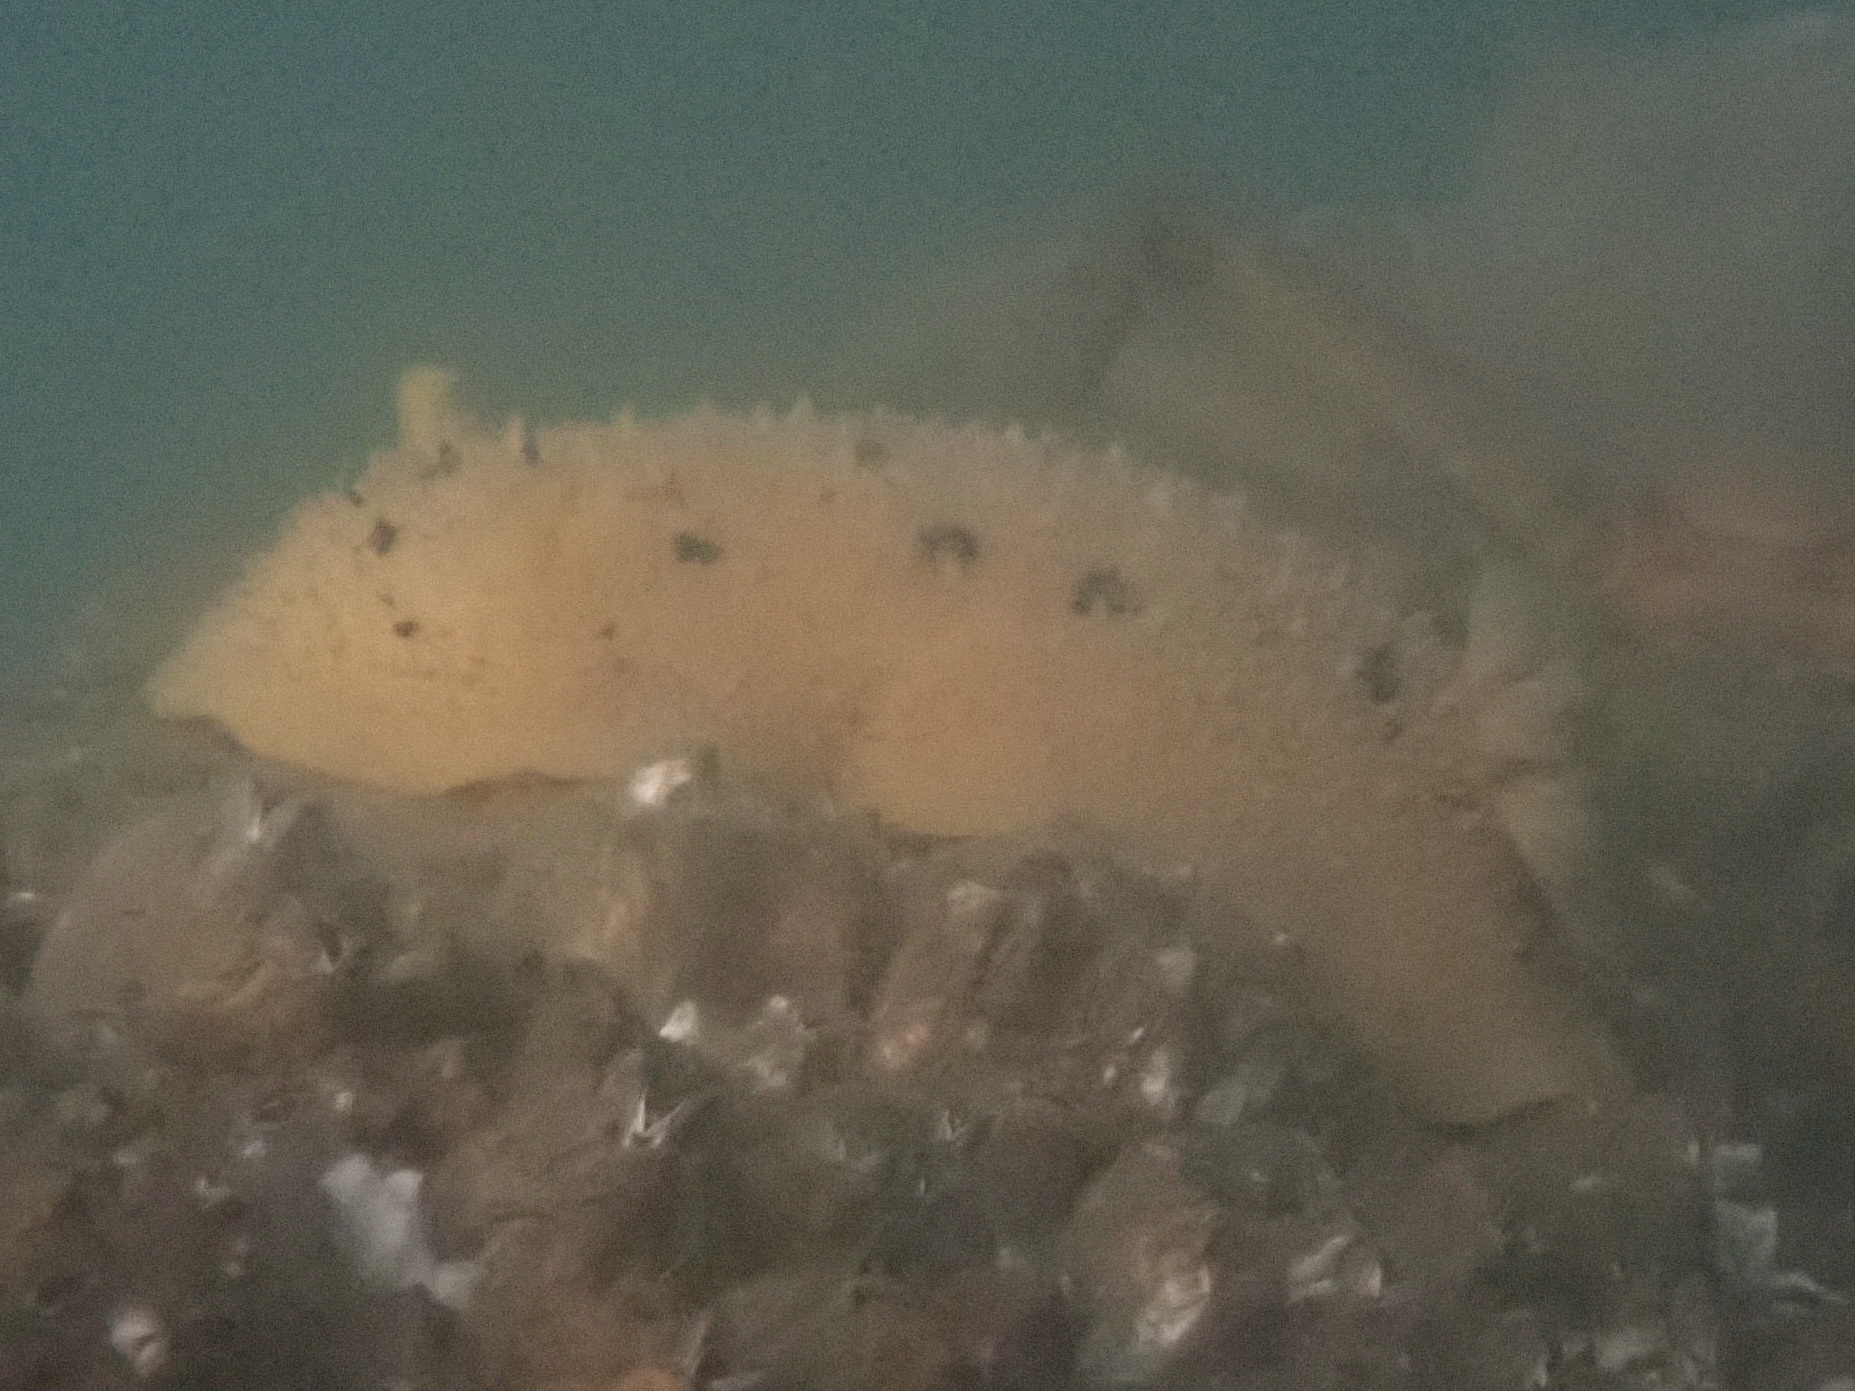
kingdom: Animalia
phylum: Mollusca
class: Gastropoda
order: Nudibranchia
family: Dorididae
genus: Doris
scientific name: Doris montereyensis
